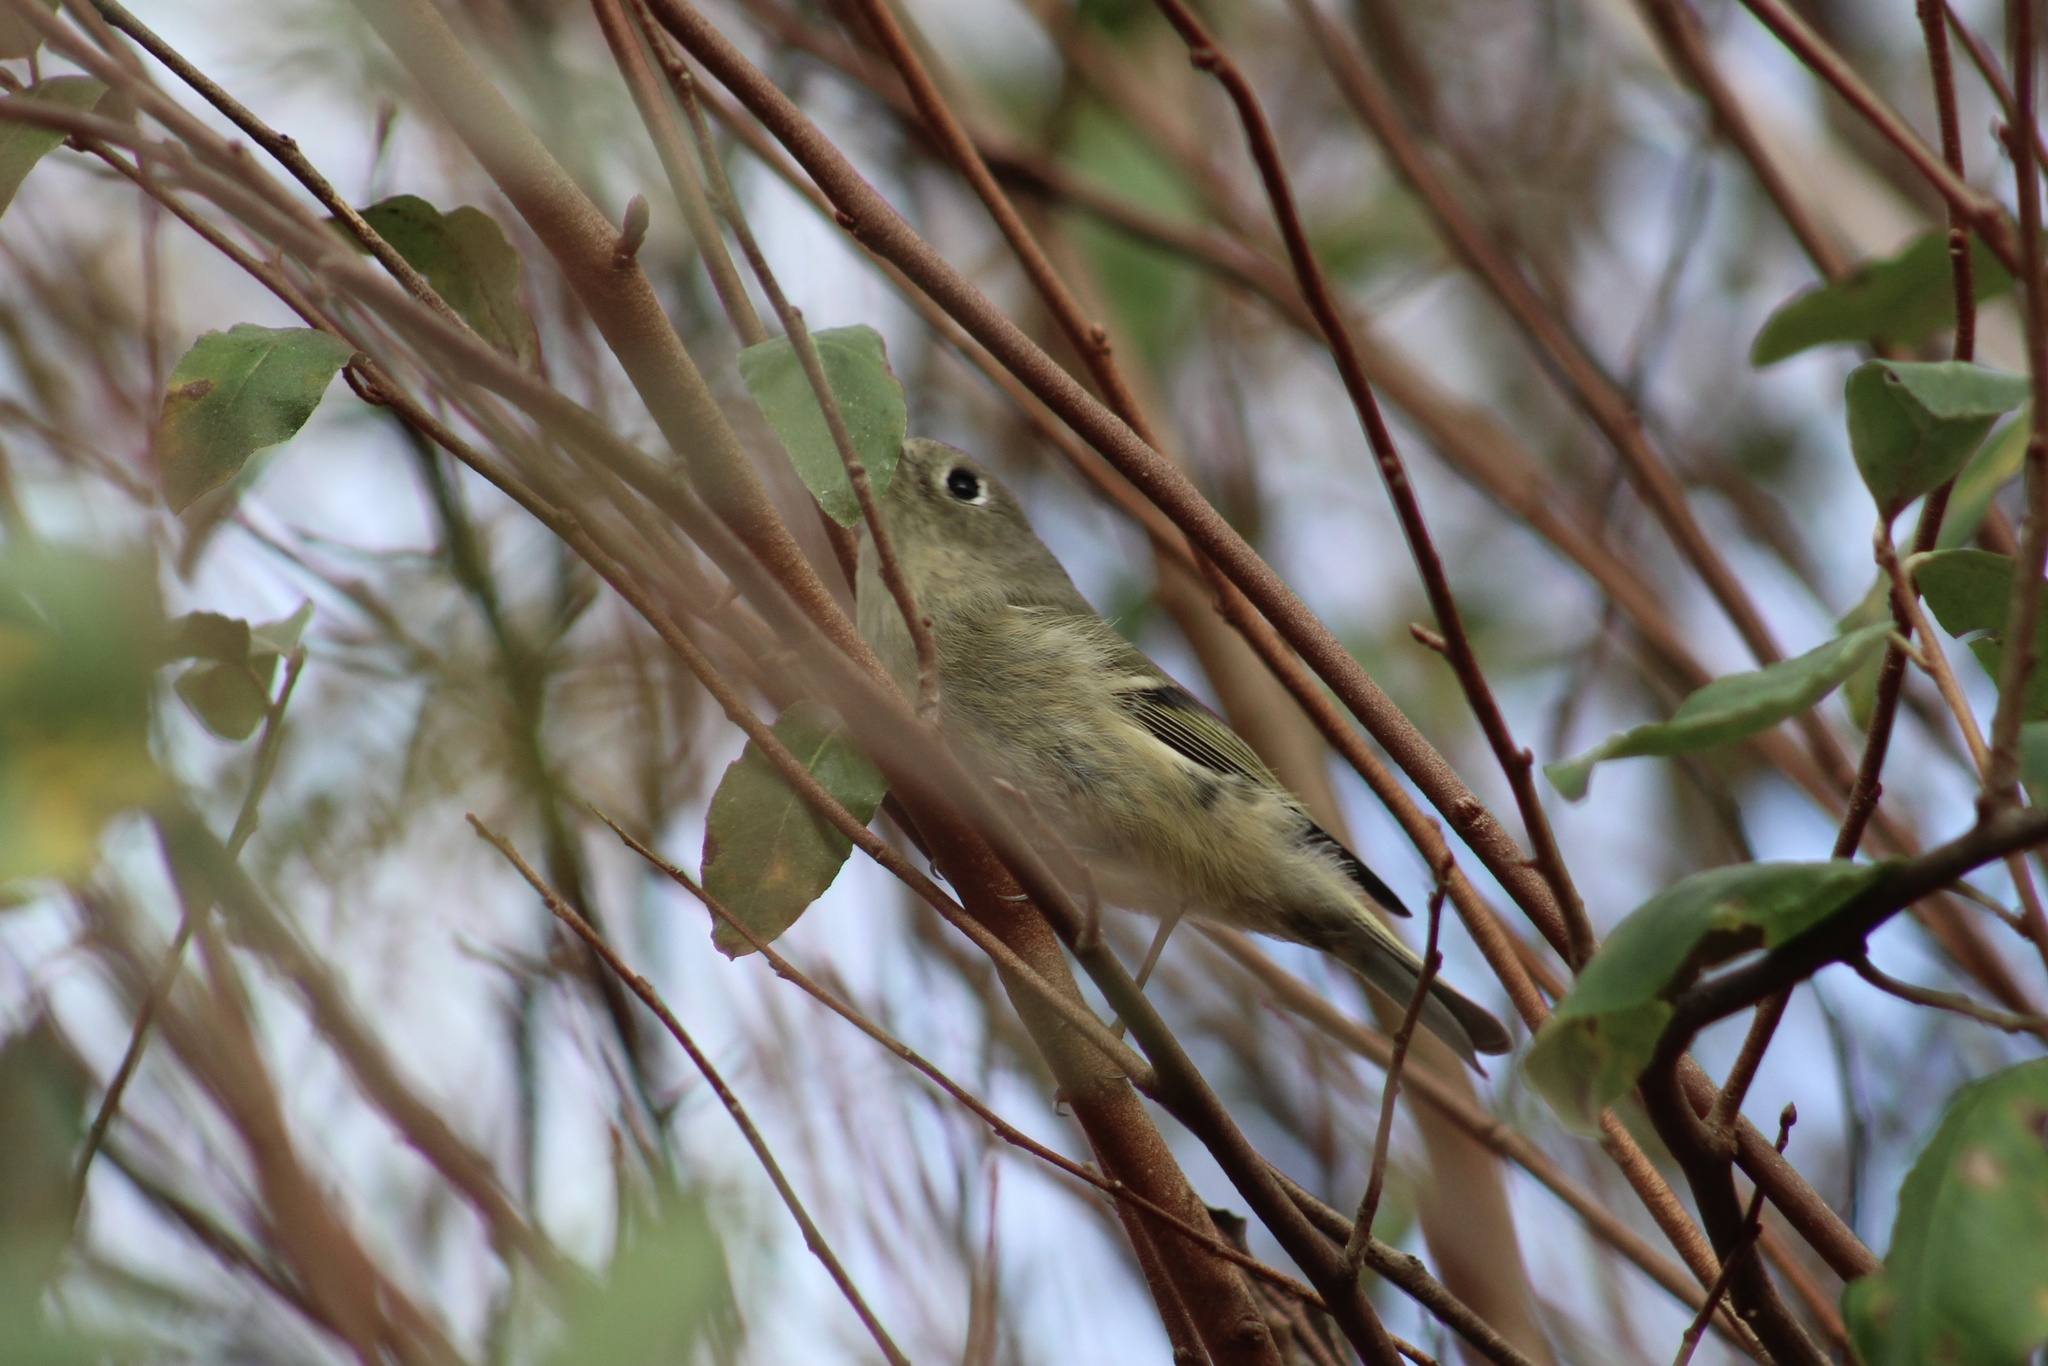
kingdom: Animalia
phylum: Chordata
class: Aves
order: Passeriformes
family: Regulidae
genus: Regulus
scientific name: Regulus calendula
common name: Ruby-crowned kinglet
